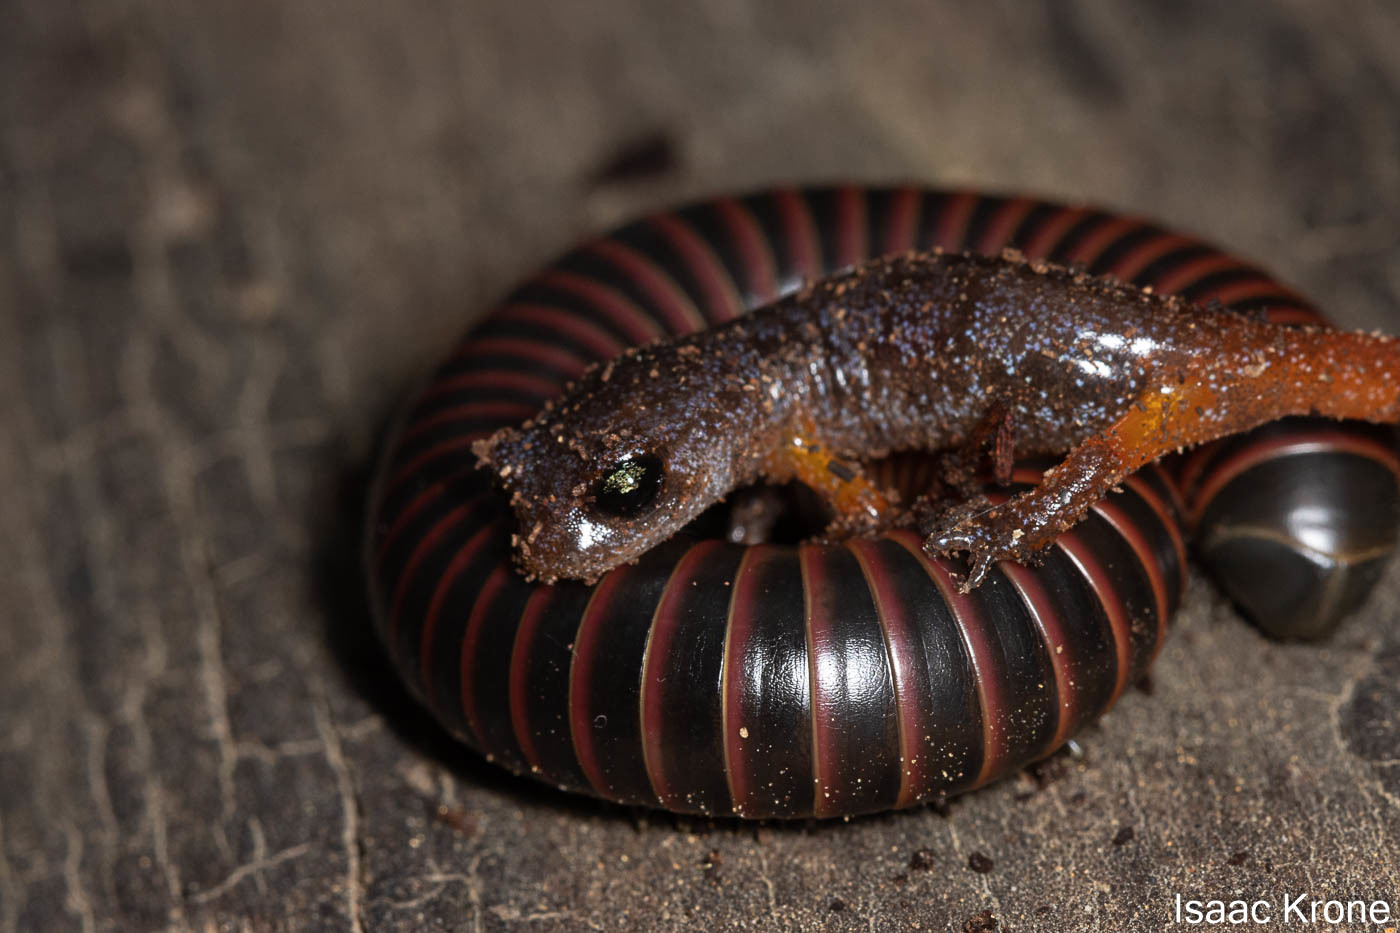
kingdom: Animalia
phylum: Chordata
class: Amphibia
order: Caudata
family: Plethodontidae
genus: Ensatina
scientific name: Ensatina eschscholtzii
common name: Ensatina
